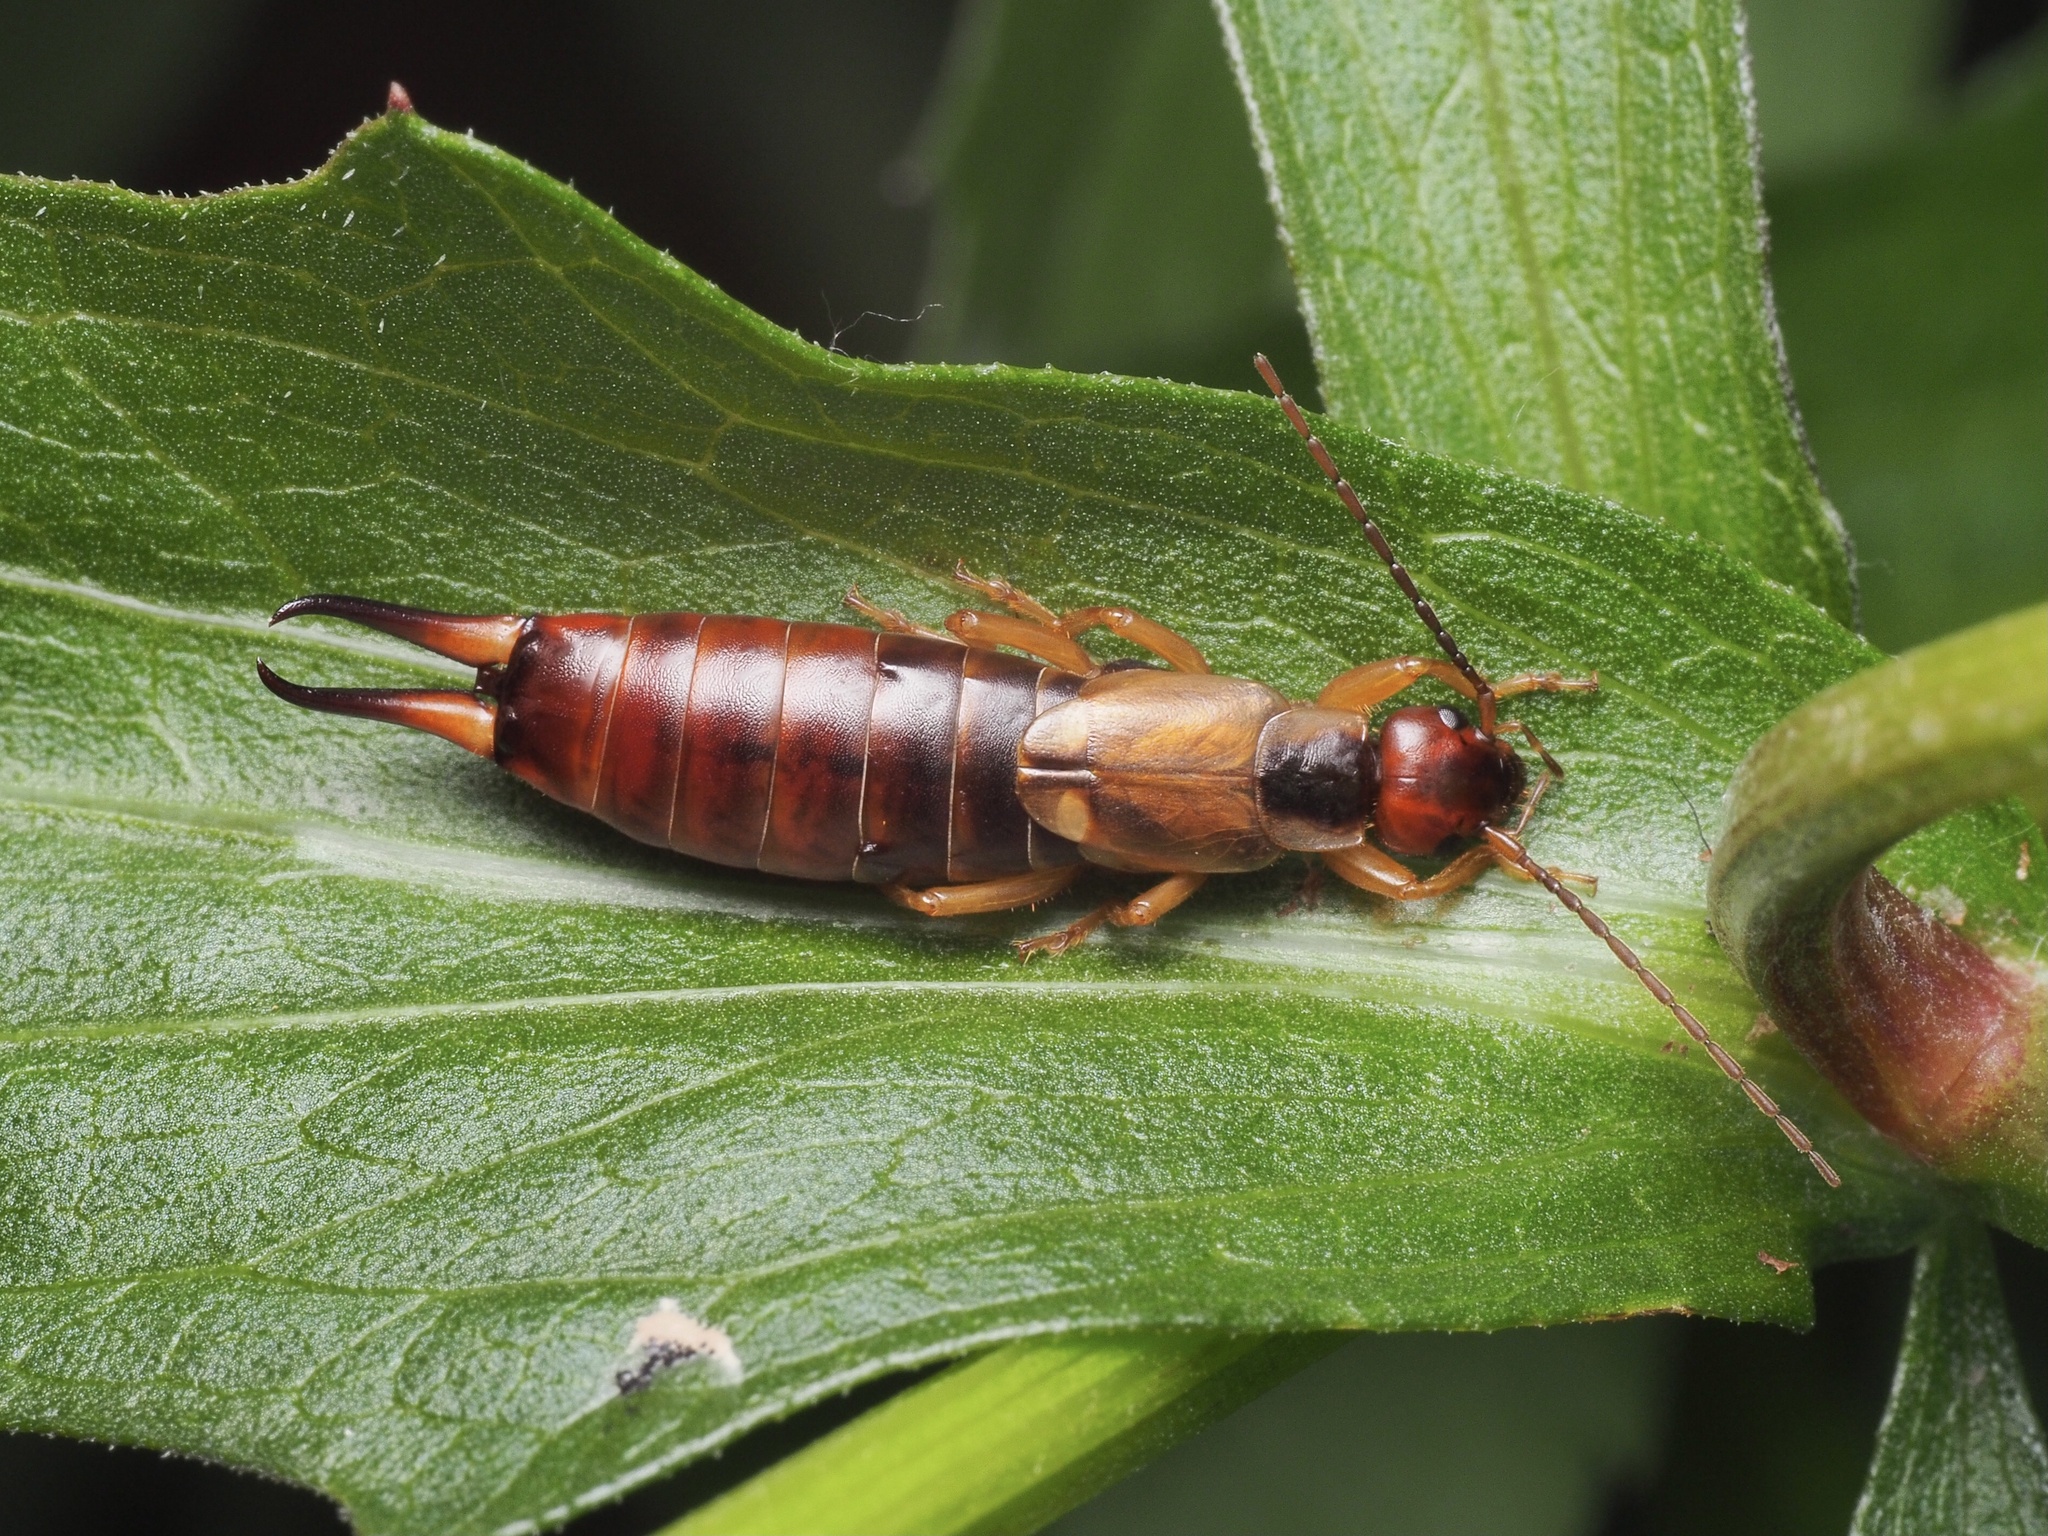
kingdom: Animalia
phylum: Arthropoda
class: Insecta
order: Dermaptera
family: Forficulidae
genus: Forficula
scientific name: Forficula
